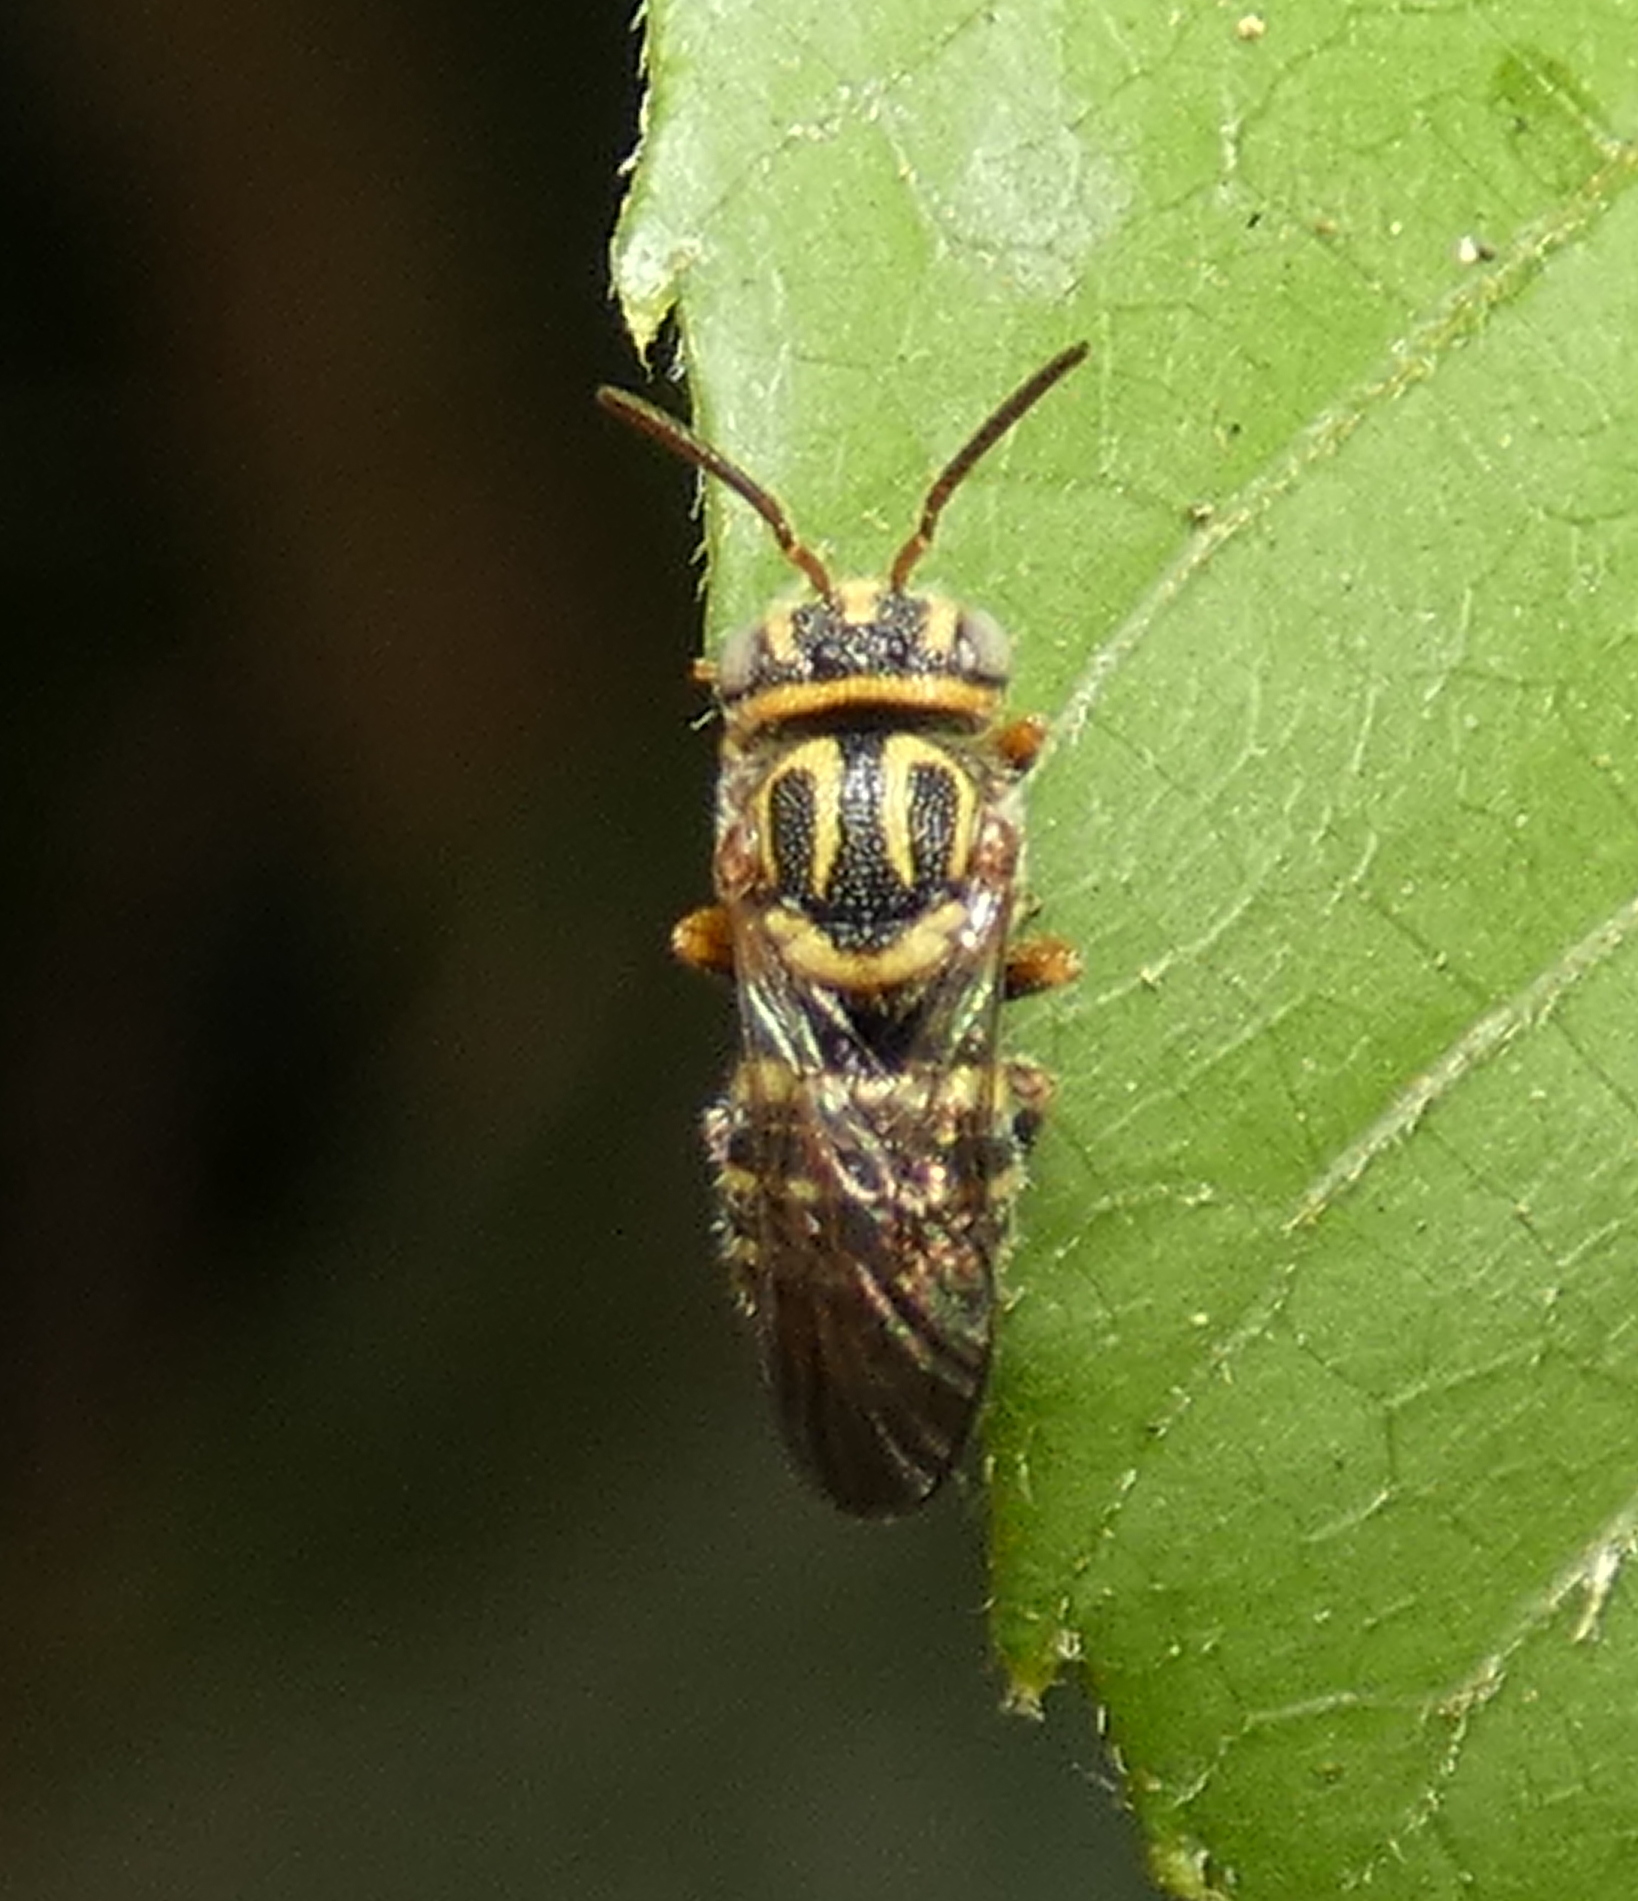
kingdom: Animalia
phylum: Arthropoda
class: Insecta
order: Hymenoptera
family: Megachilidae
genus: Epanthidium
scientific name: Epanthidium tigrinum
